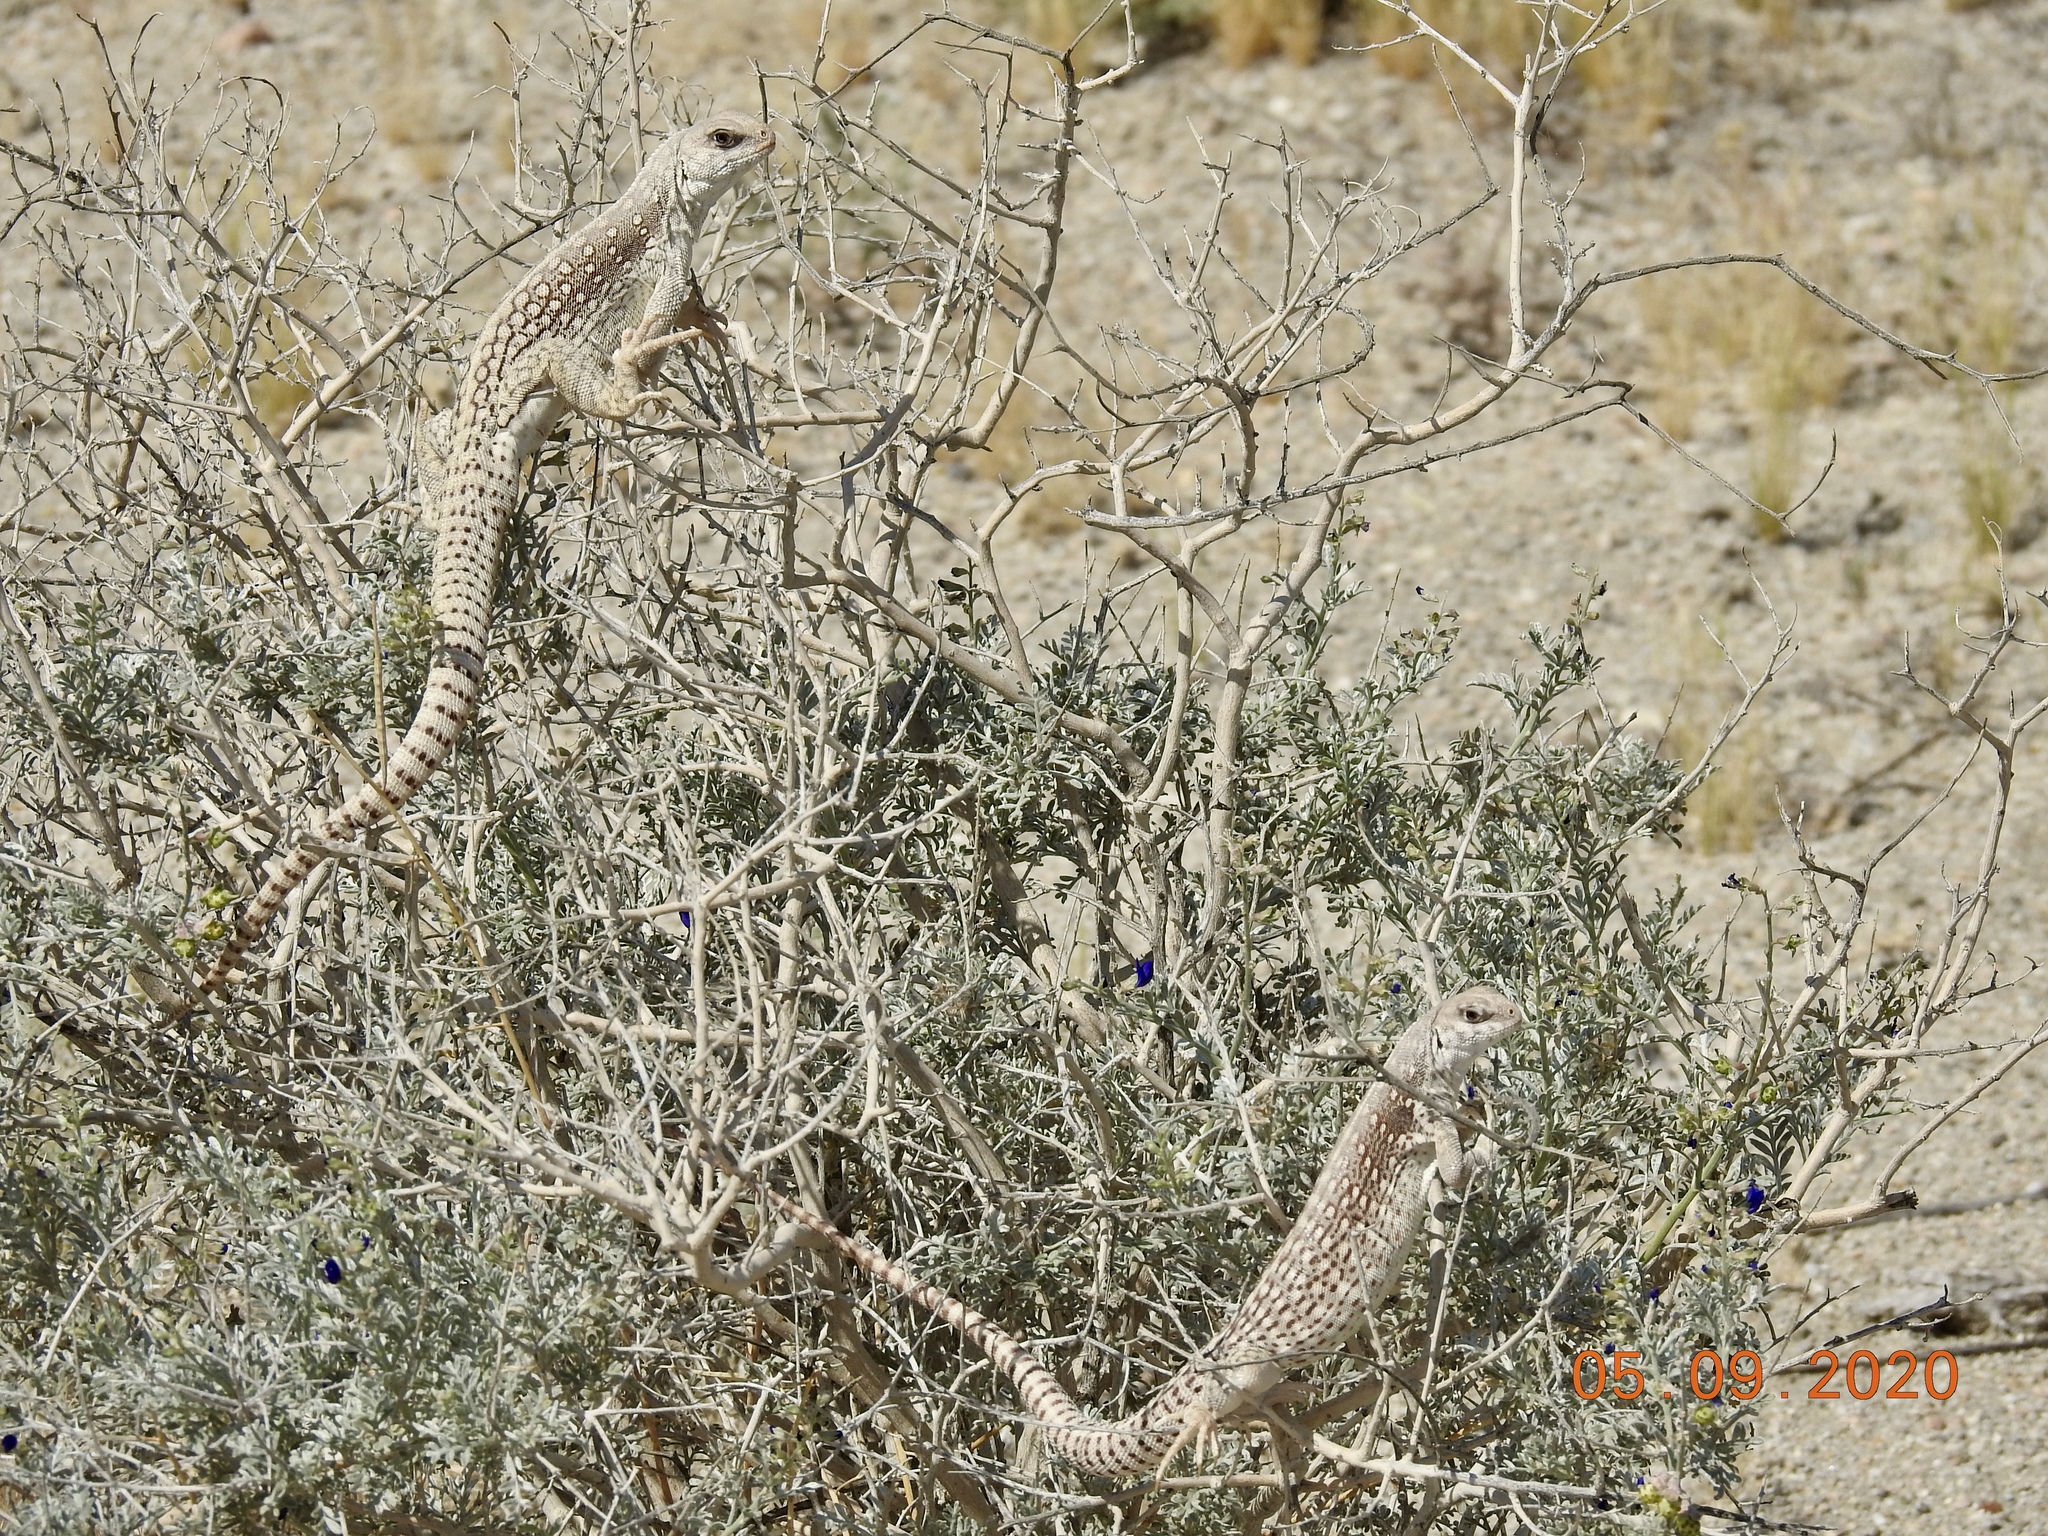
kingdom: Animalia
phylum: Chordata
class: Squamata
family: Iguanidae
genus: Dipsosaurus
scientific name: Dipsosaurus dorsalis
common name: Desert iguana
